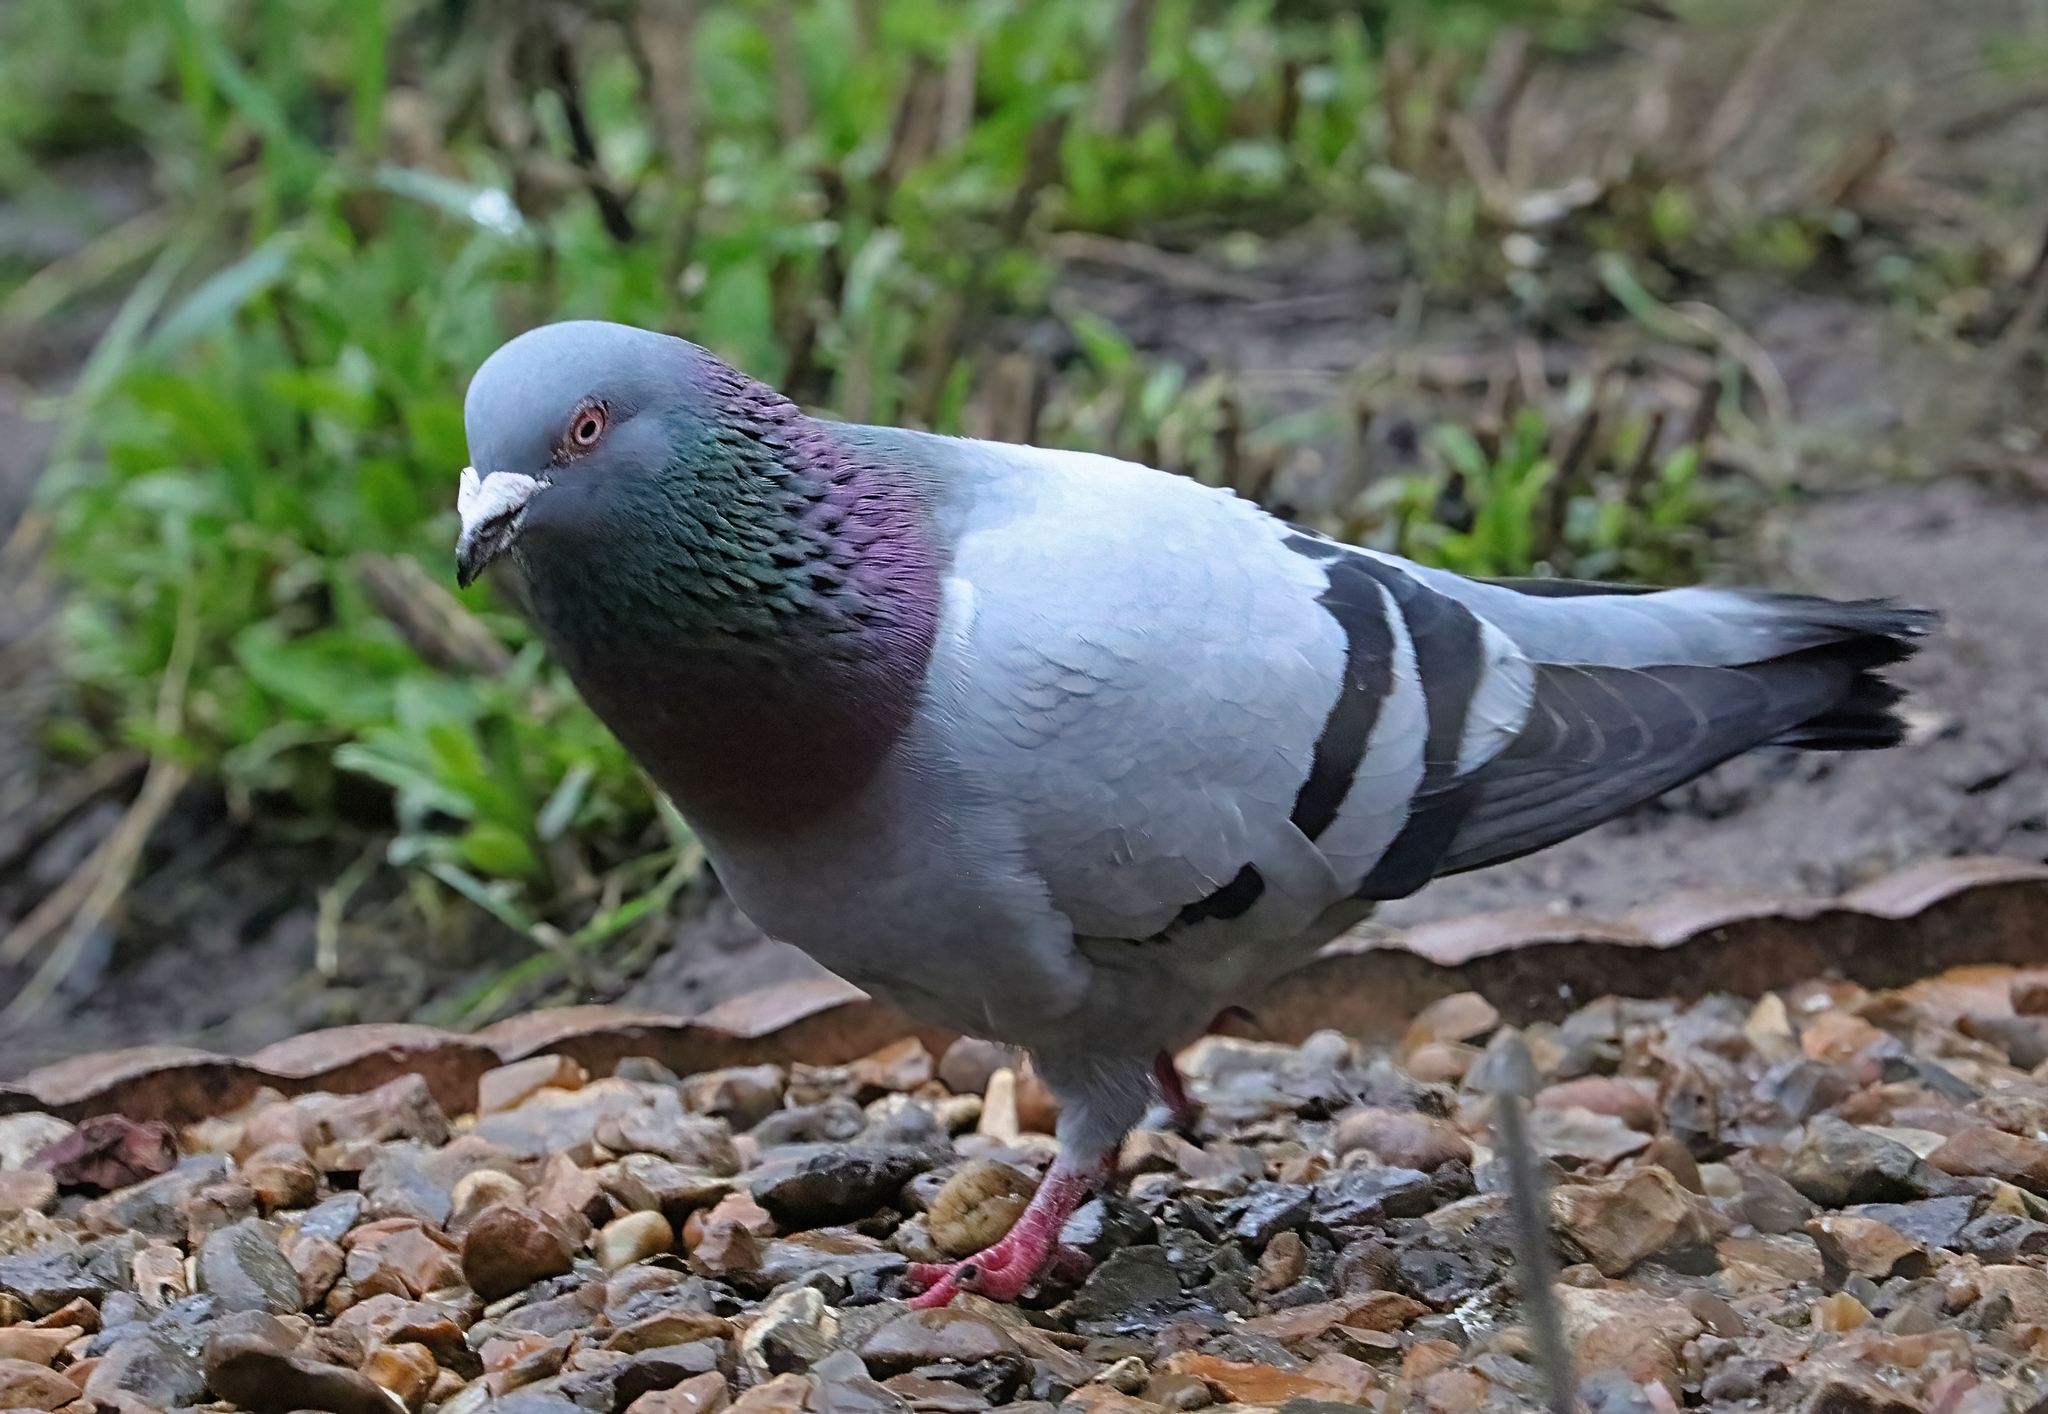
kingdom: Animalia
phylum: Chordata
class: Aves
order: Columbiformes
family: Columbidae
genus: Columba
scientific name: Columba livia
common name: Rock pigeon
